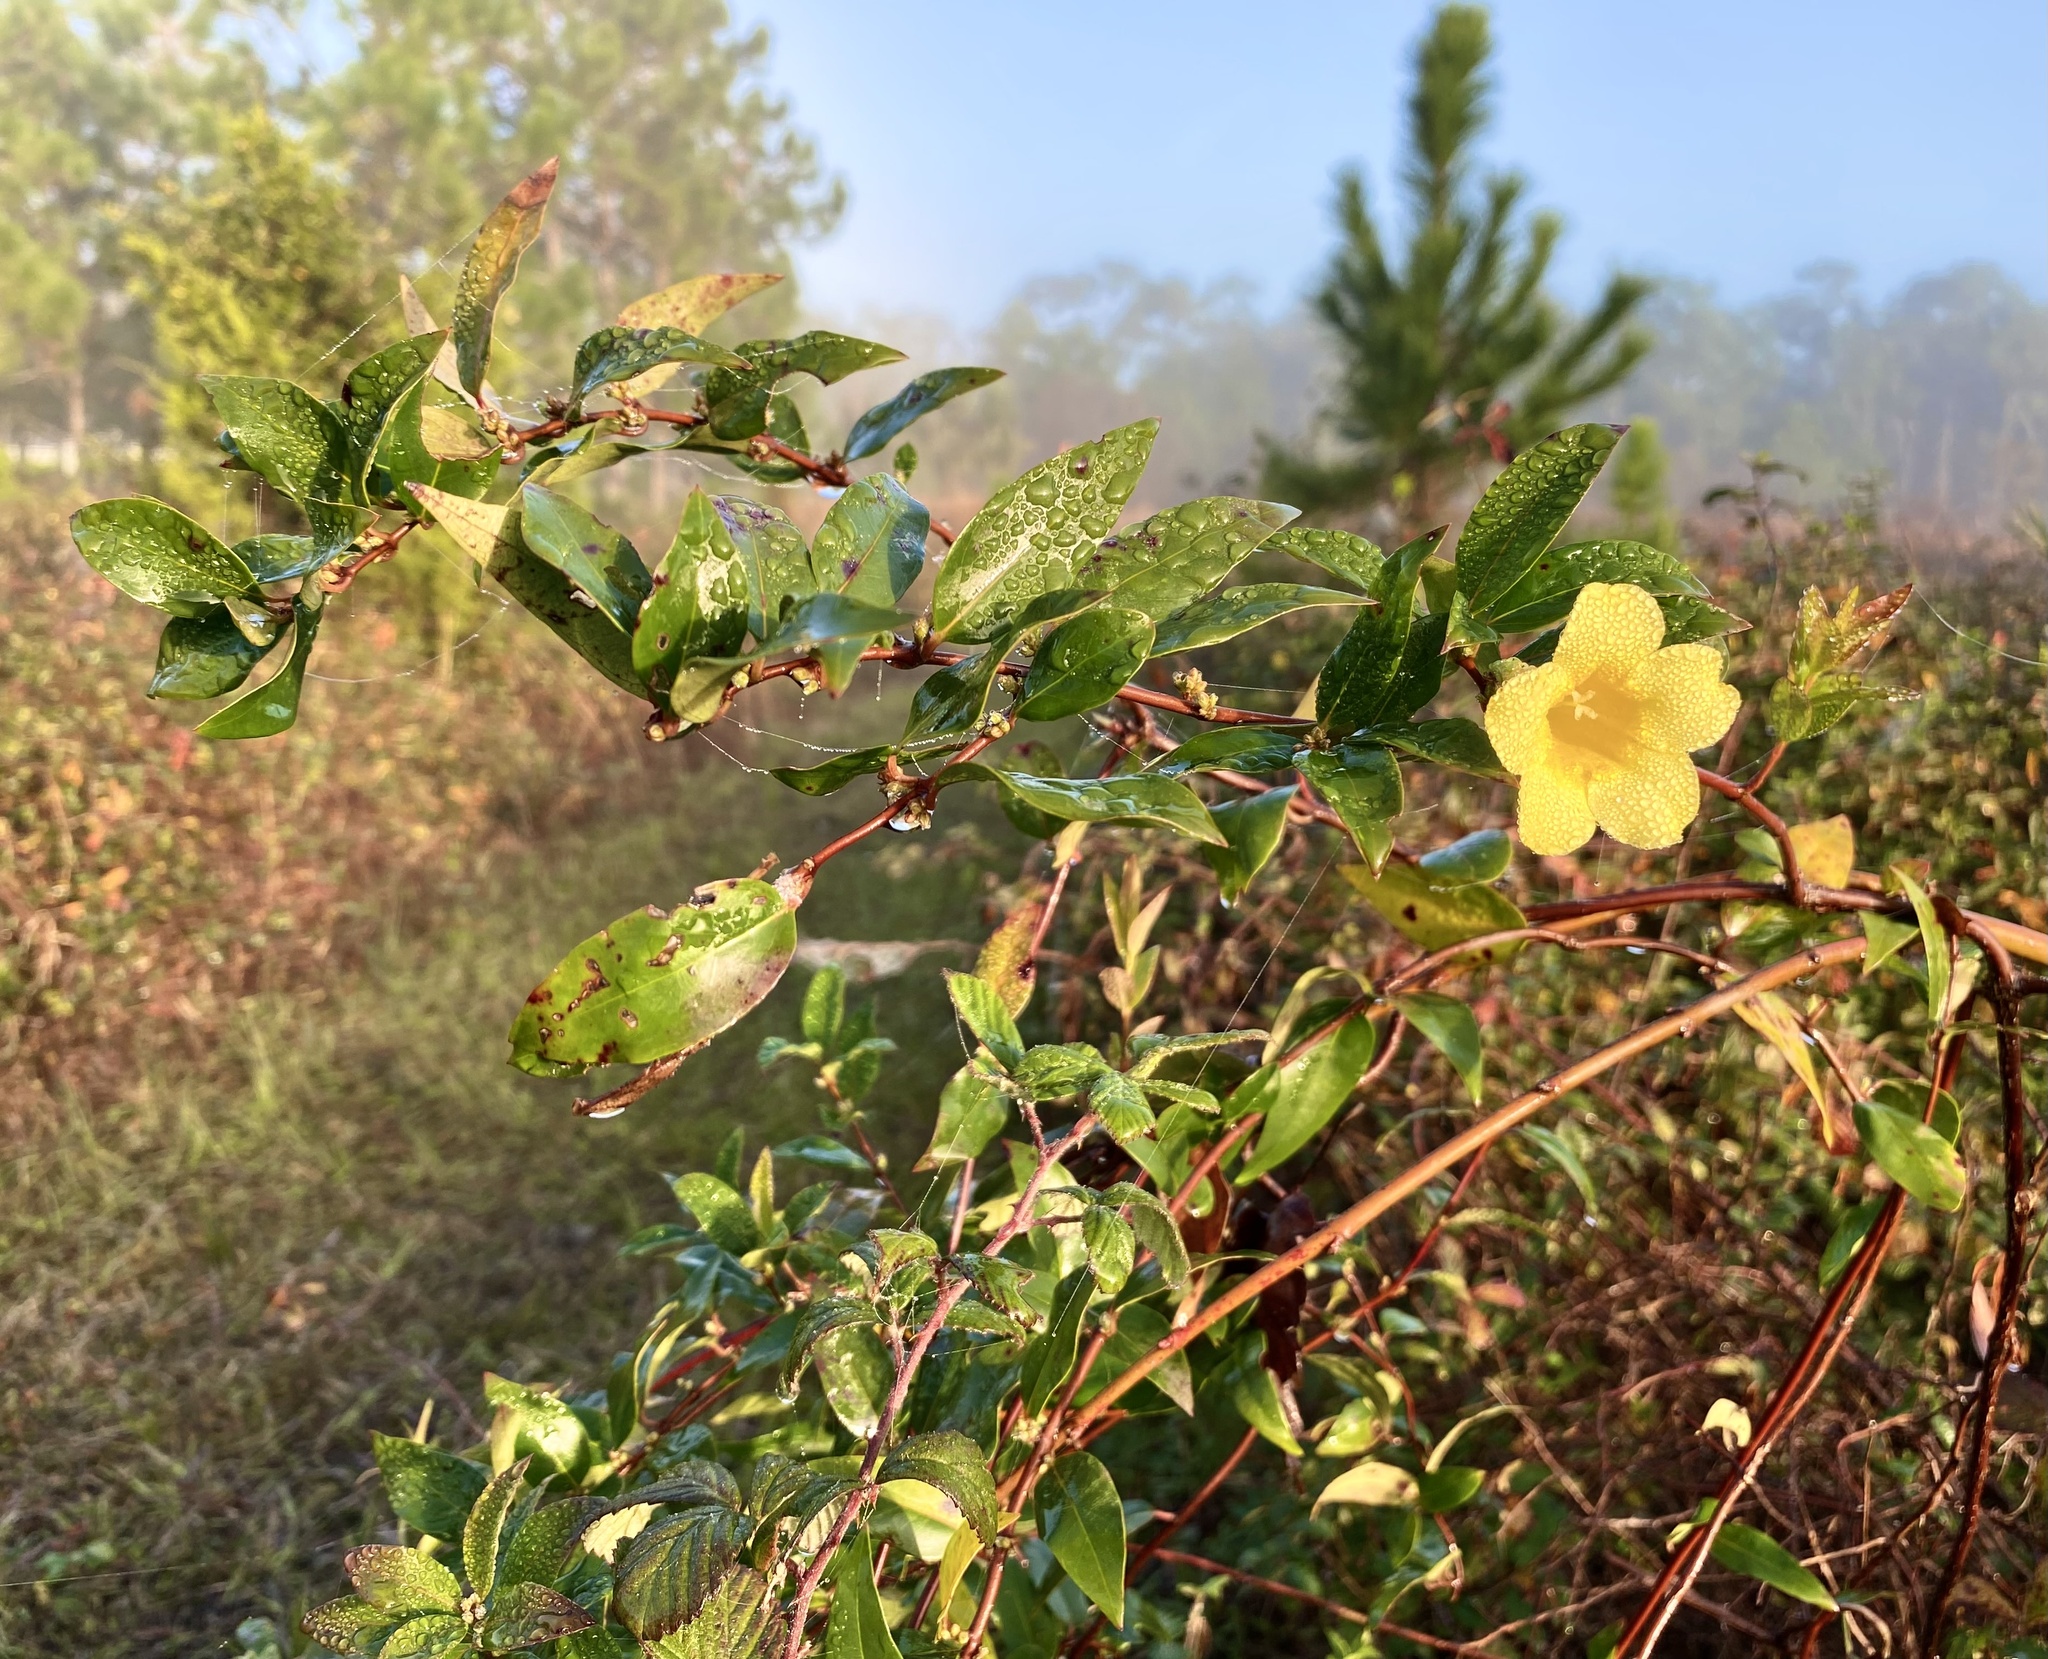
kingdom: Plantae
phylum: Tracheophyta
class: Magnoliopsida
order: Gentianales
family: Gelsemiaceae
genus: Gelsemium
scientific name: Gelsemium sempervirens
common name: Carolina-jasmine
